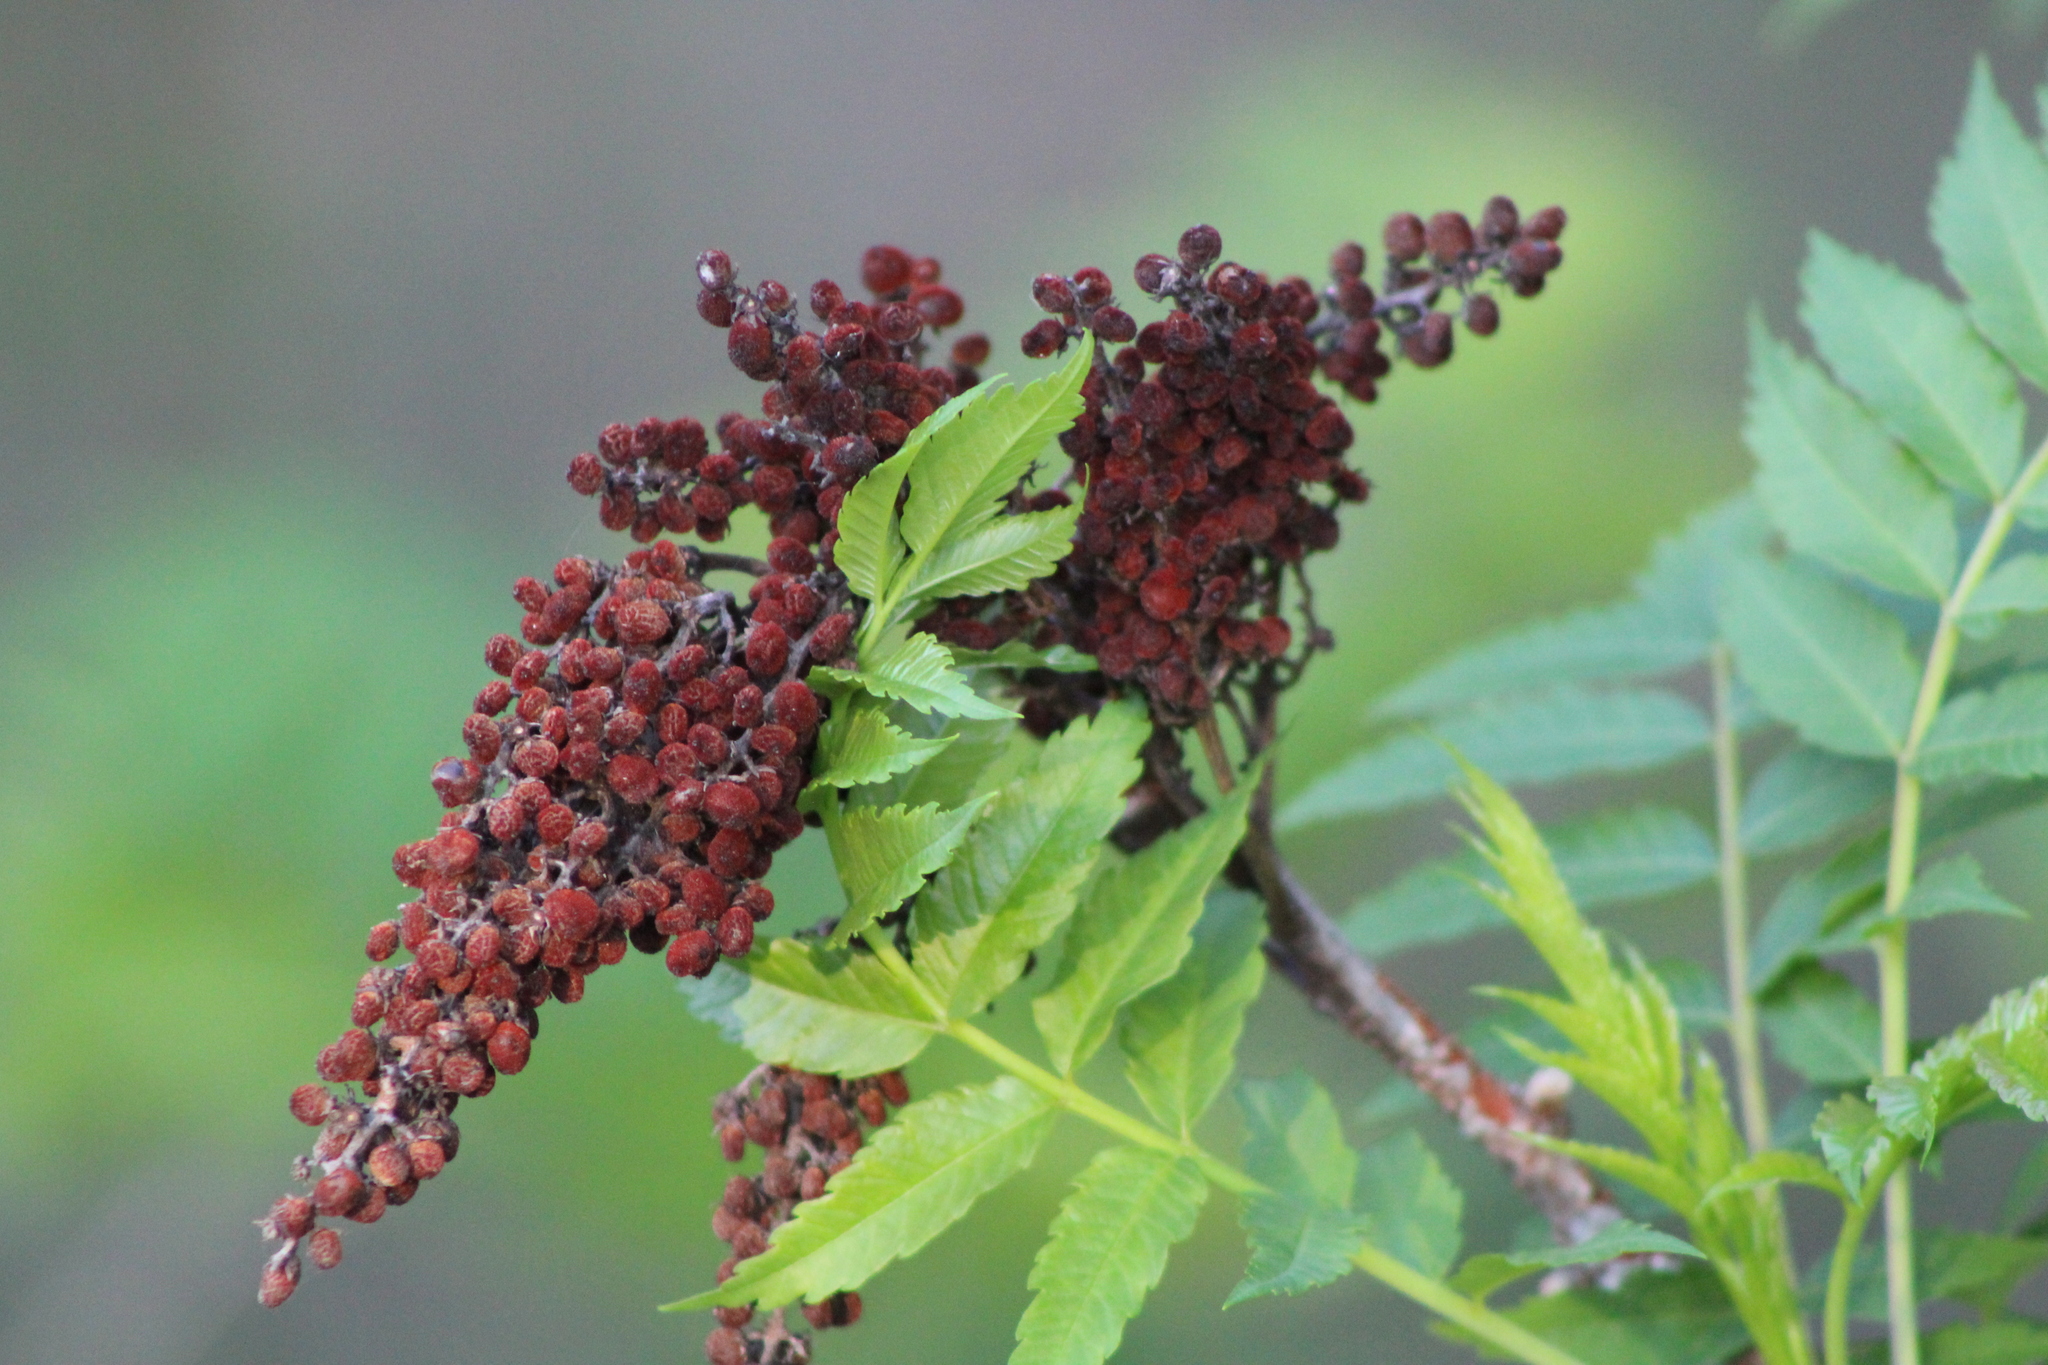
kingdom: Plantae
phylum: Tracheophyta
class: Magnoliopsida
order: Sapindales
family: Anacardiaceae
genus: Rhus
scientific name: Rhus glabra
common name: Scarlet sumac
